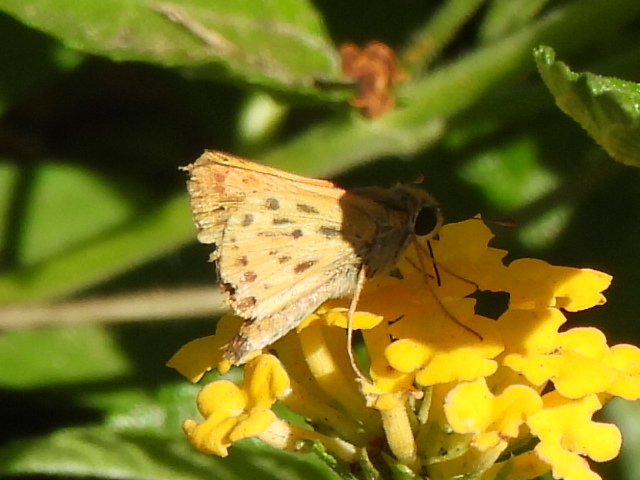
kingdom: Animalia
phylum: Arthropoda
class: Insecta
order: Lepidoptera
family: Hesperiidae
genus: Hylephila
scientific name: Hylephila phyleus
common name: Fiery skipper
